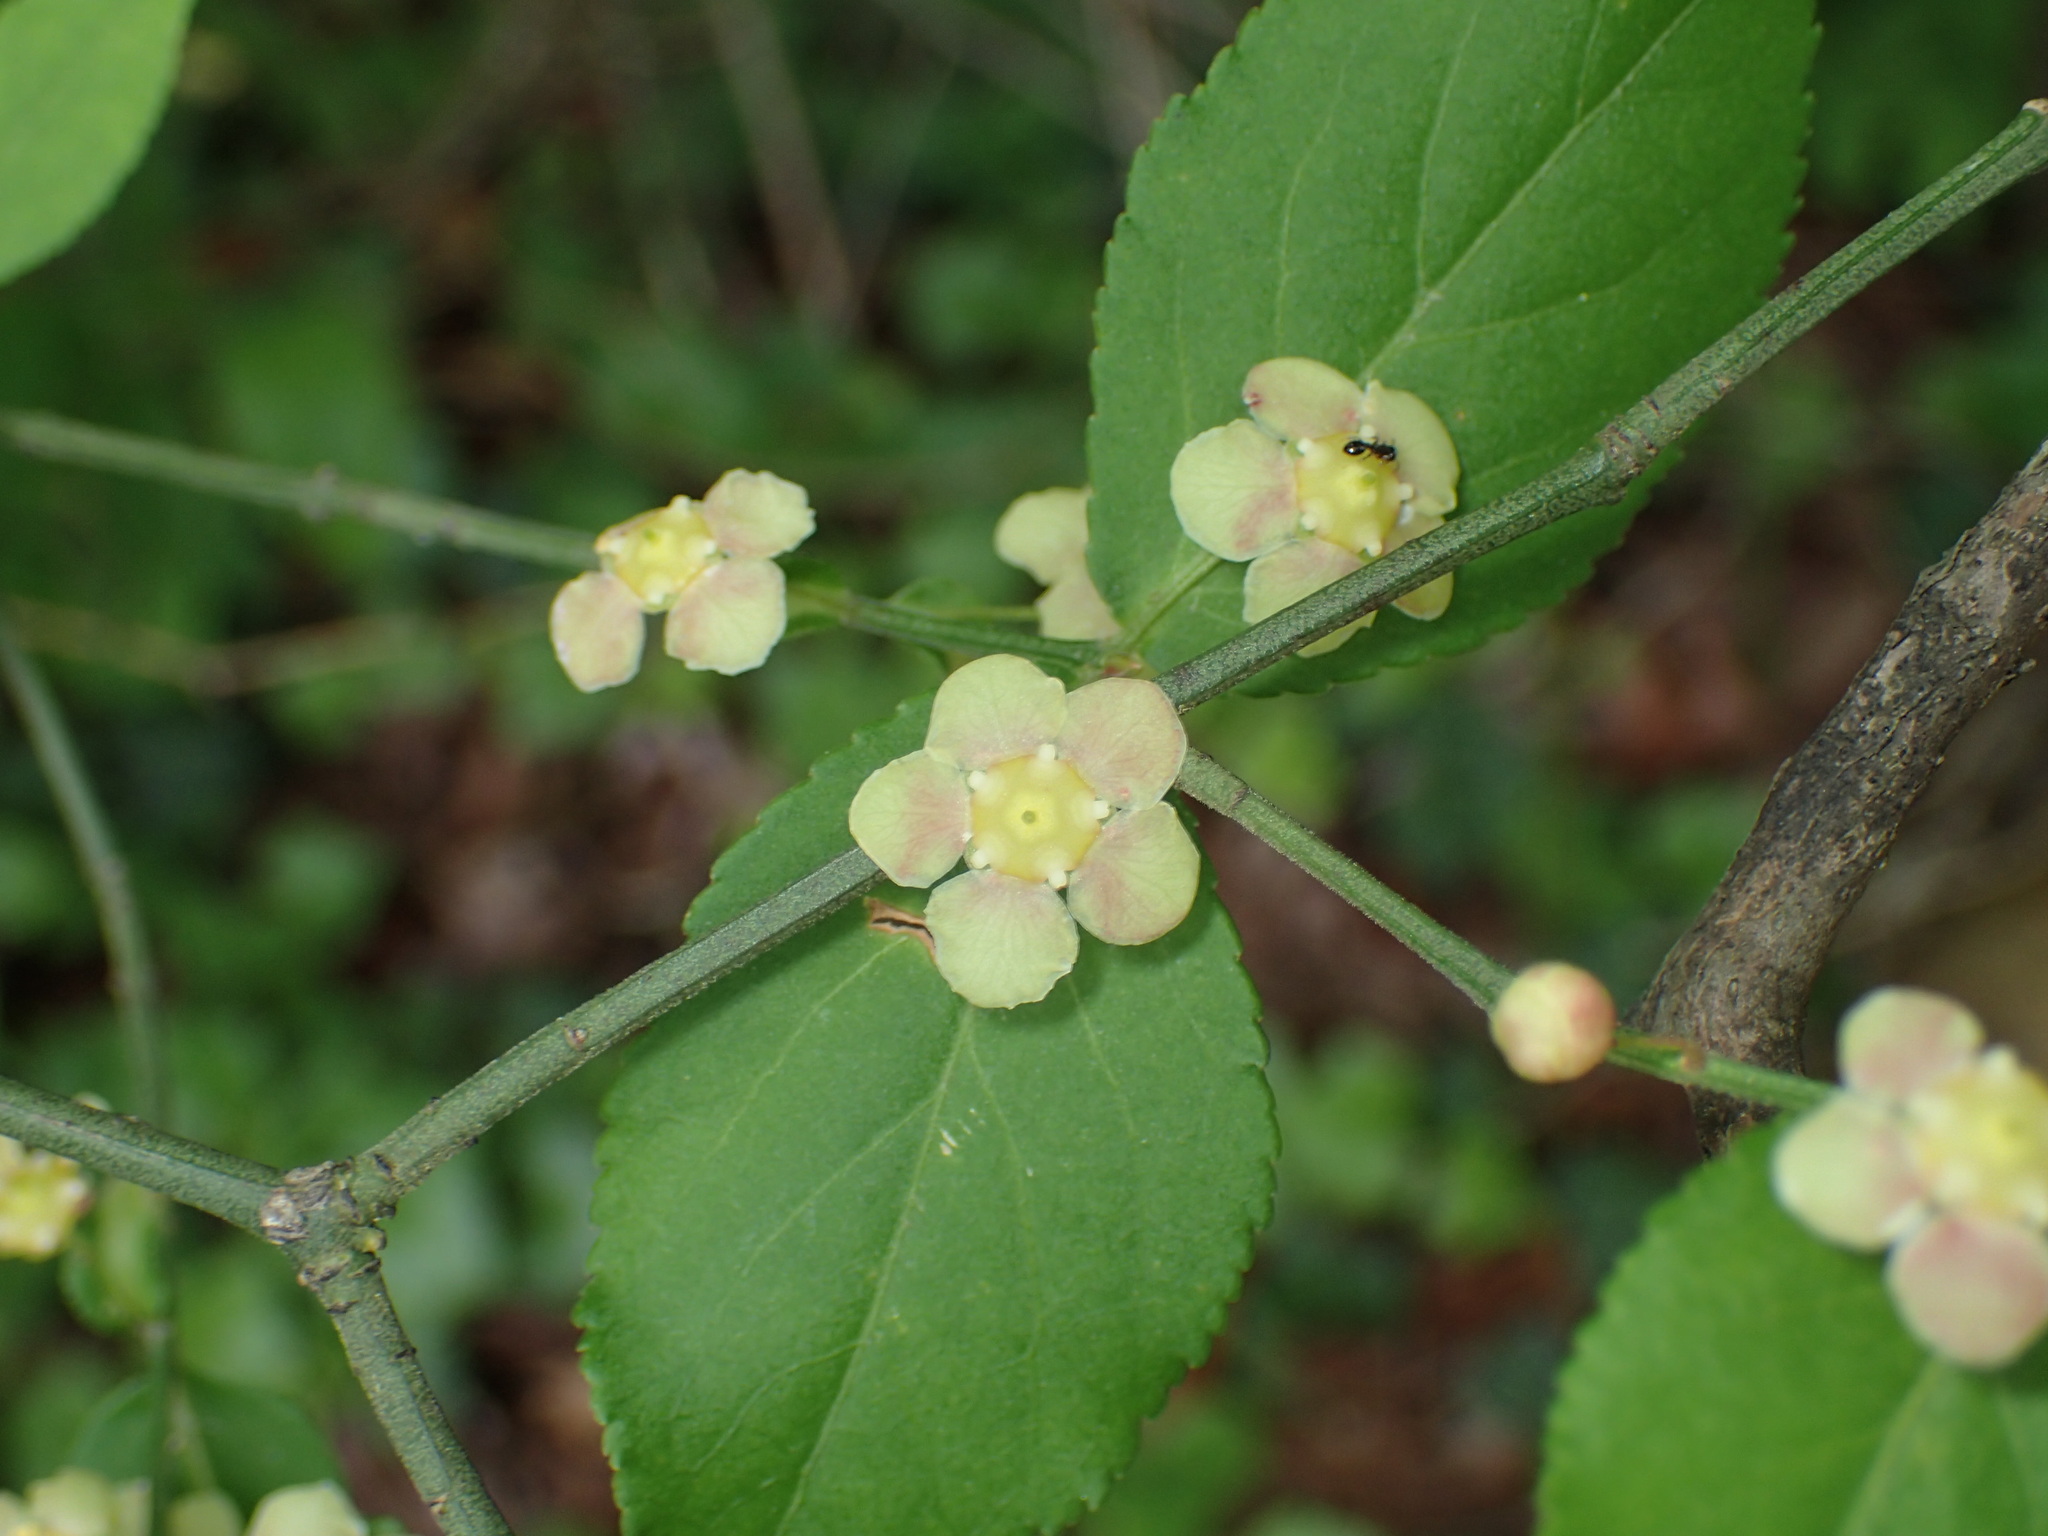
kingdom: Plantae
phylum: Tracheophyta
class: Magnoliopsida
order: Celastrales
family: Celastraceae
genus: Euonymus
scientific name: Euonymus americanus
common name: Bursting-heart
